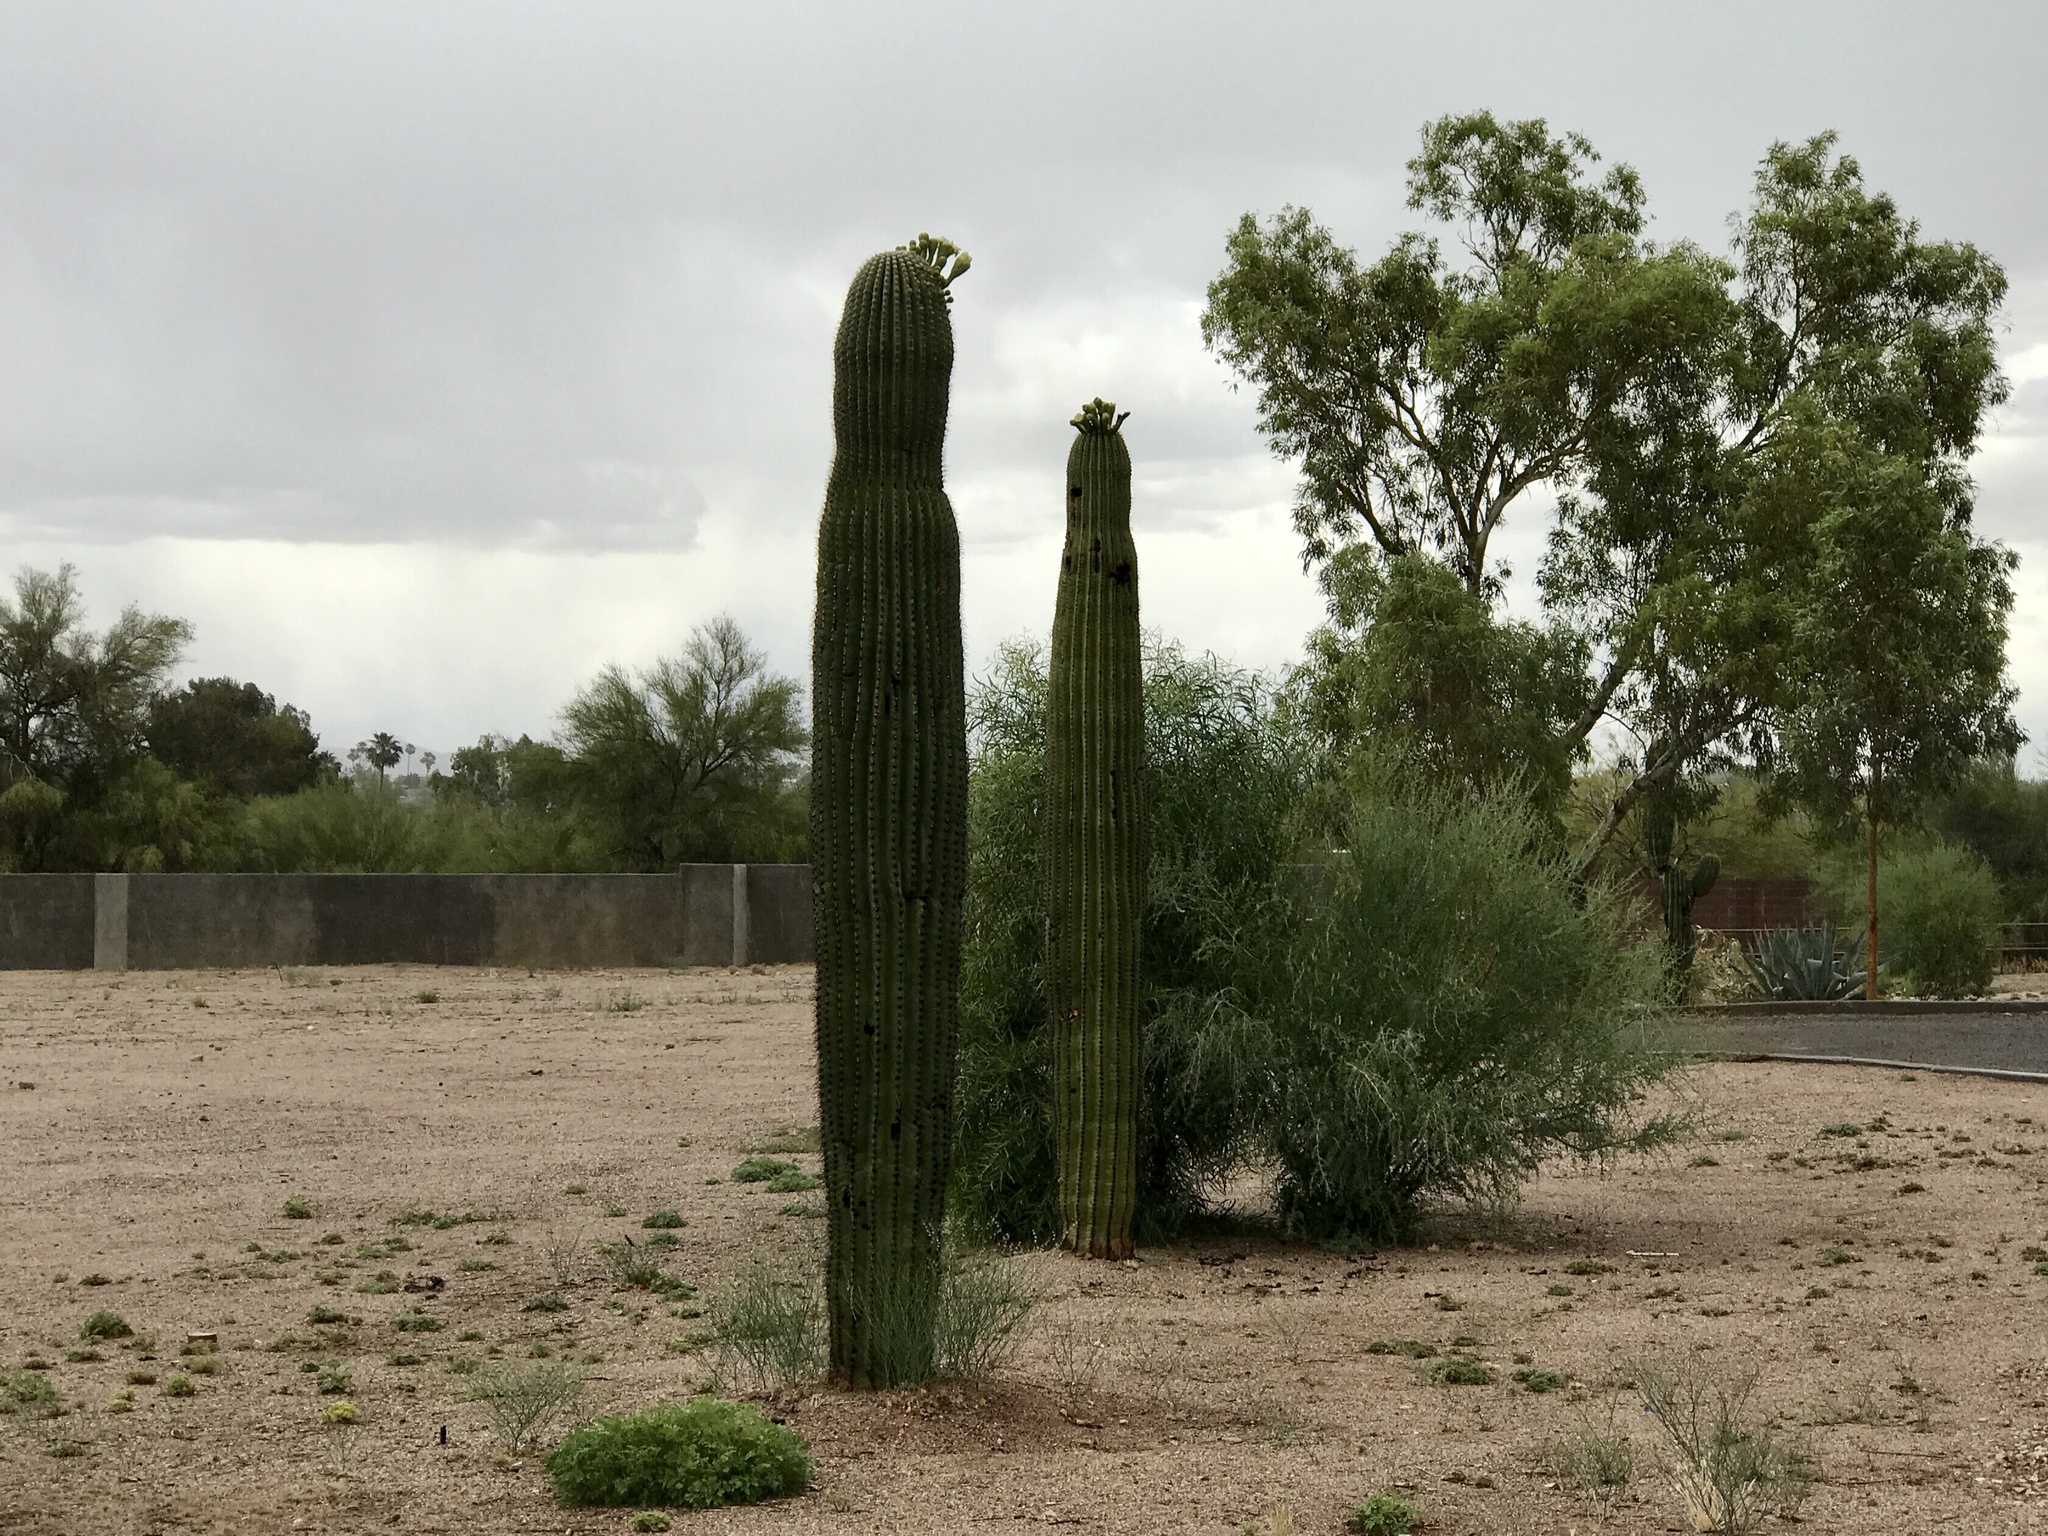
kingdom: Plantae
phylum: Tracheophyta
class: Magnoliopsida
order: Caryophyllales
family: Cactaceae
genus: Carnegiea
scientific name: Carnegiea gigantea
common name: Saguaro
